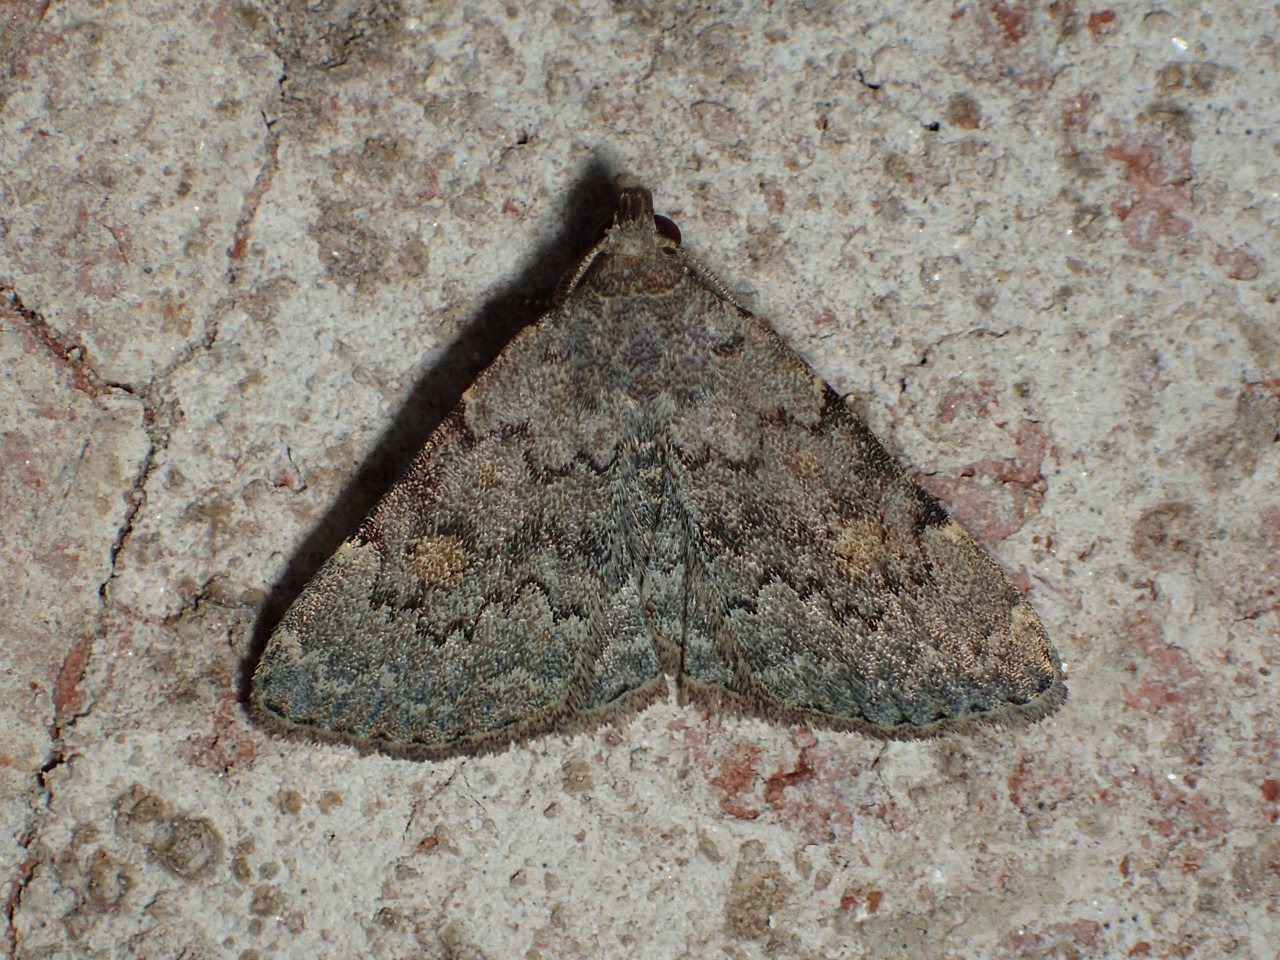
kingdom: Animalia
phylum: Arthropoda
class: Insecta
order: Lepidoptera
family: Erebidae
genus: Idia
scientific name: Idia aemula
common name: Common idia moth
